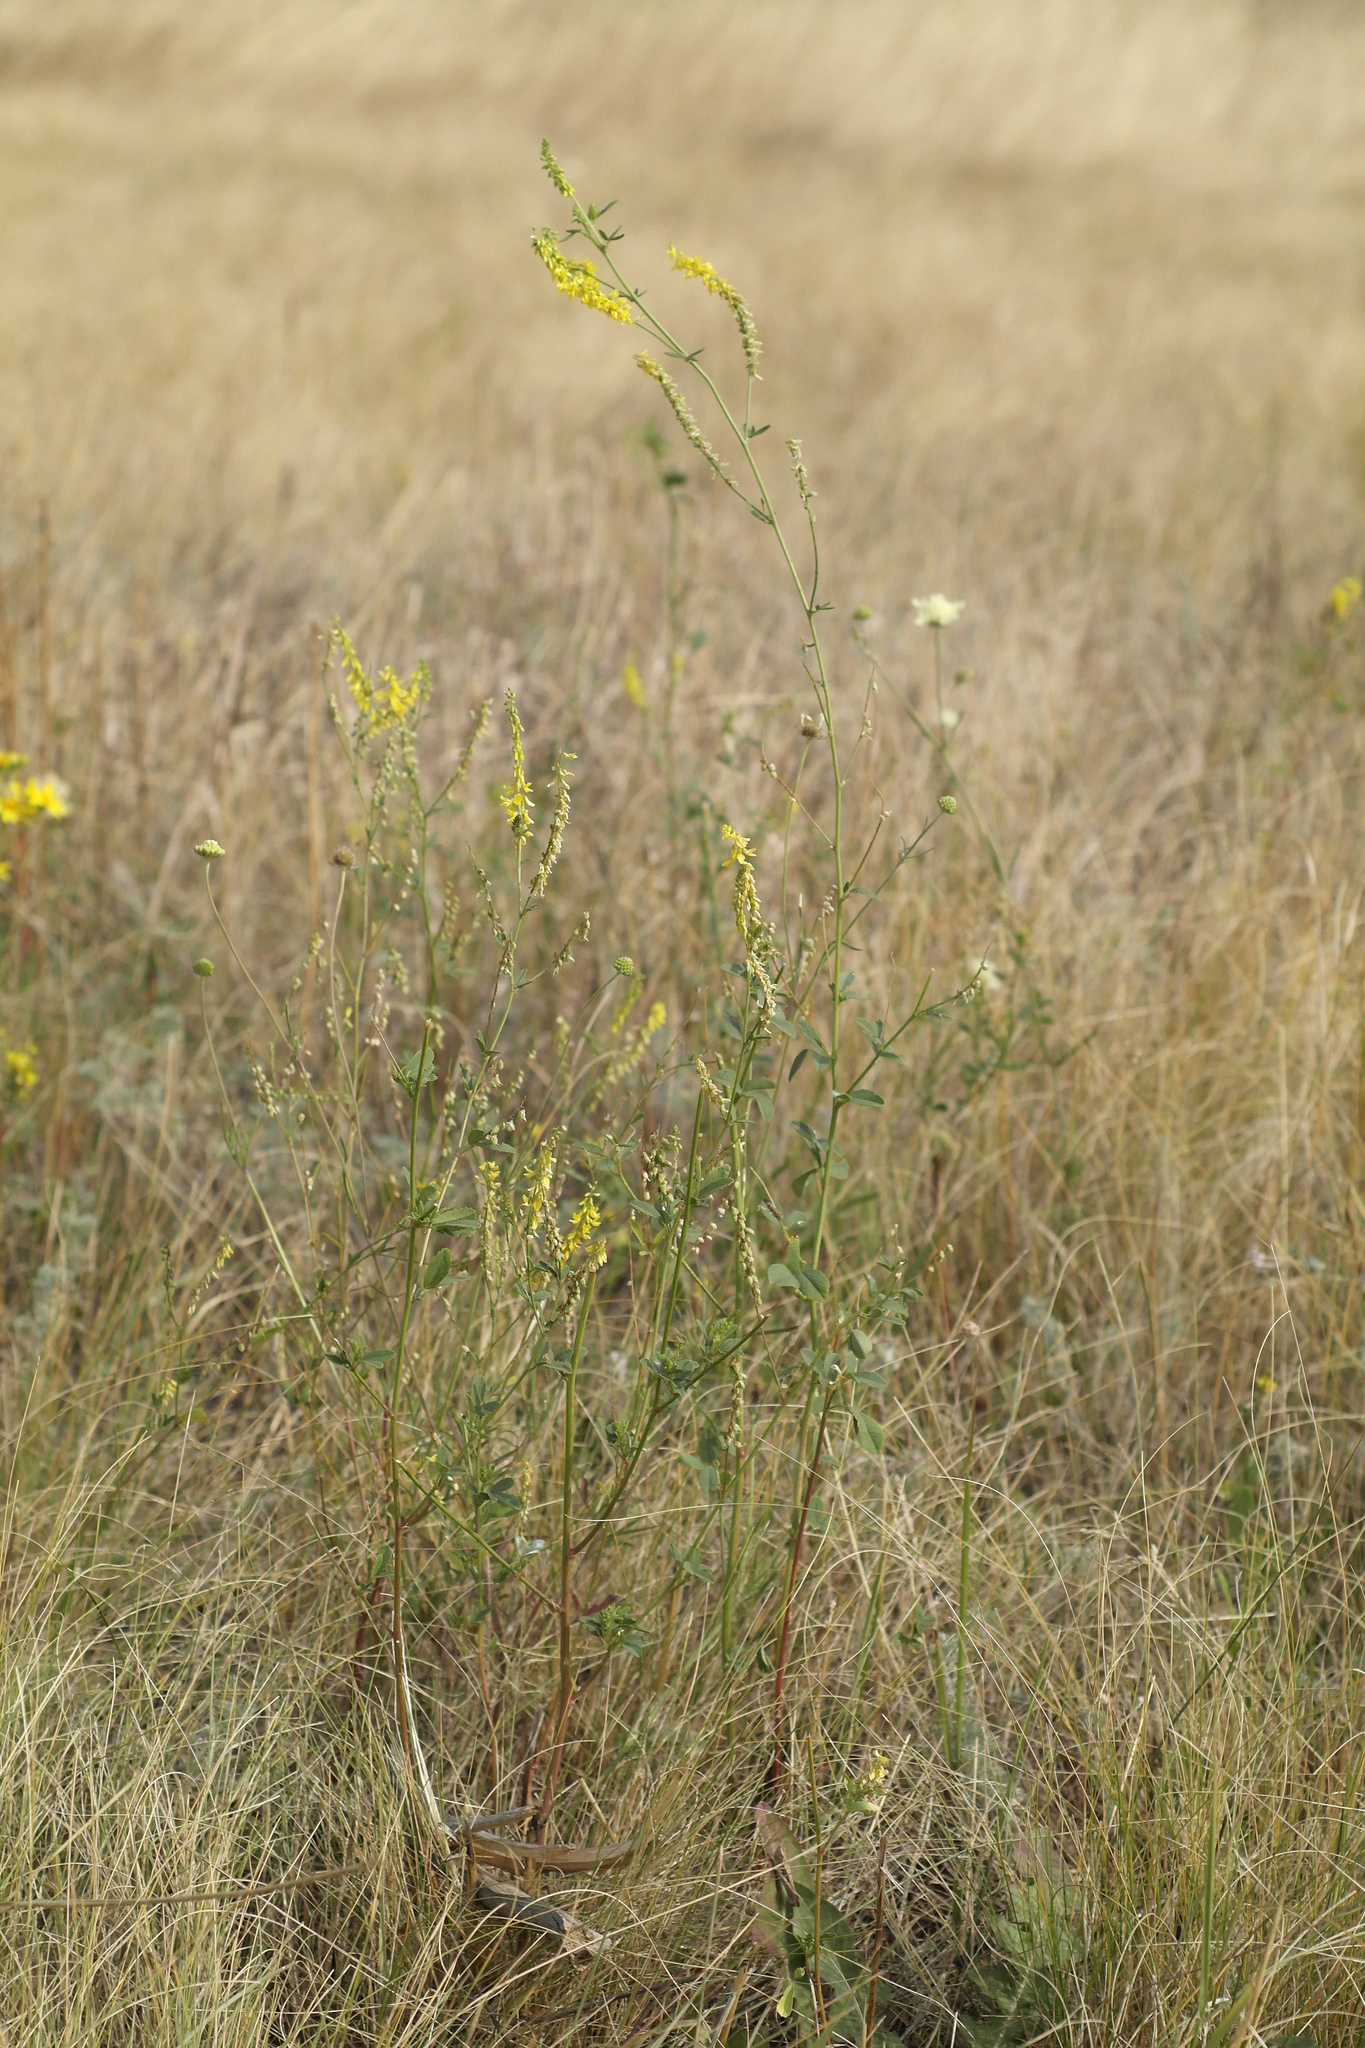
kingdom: Plantae
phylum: Tracheophyta
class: Magnoliopsida
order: Fabales
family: Fabaceae
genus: Melilotus
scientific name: Melilotus officinalis
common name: Sweetclover
